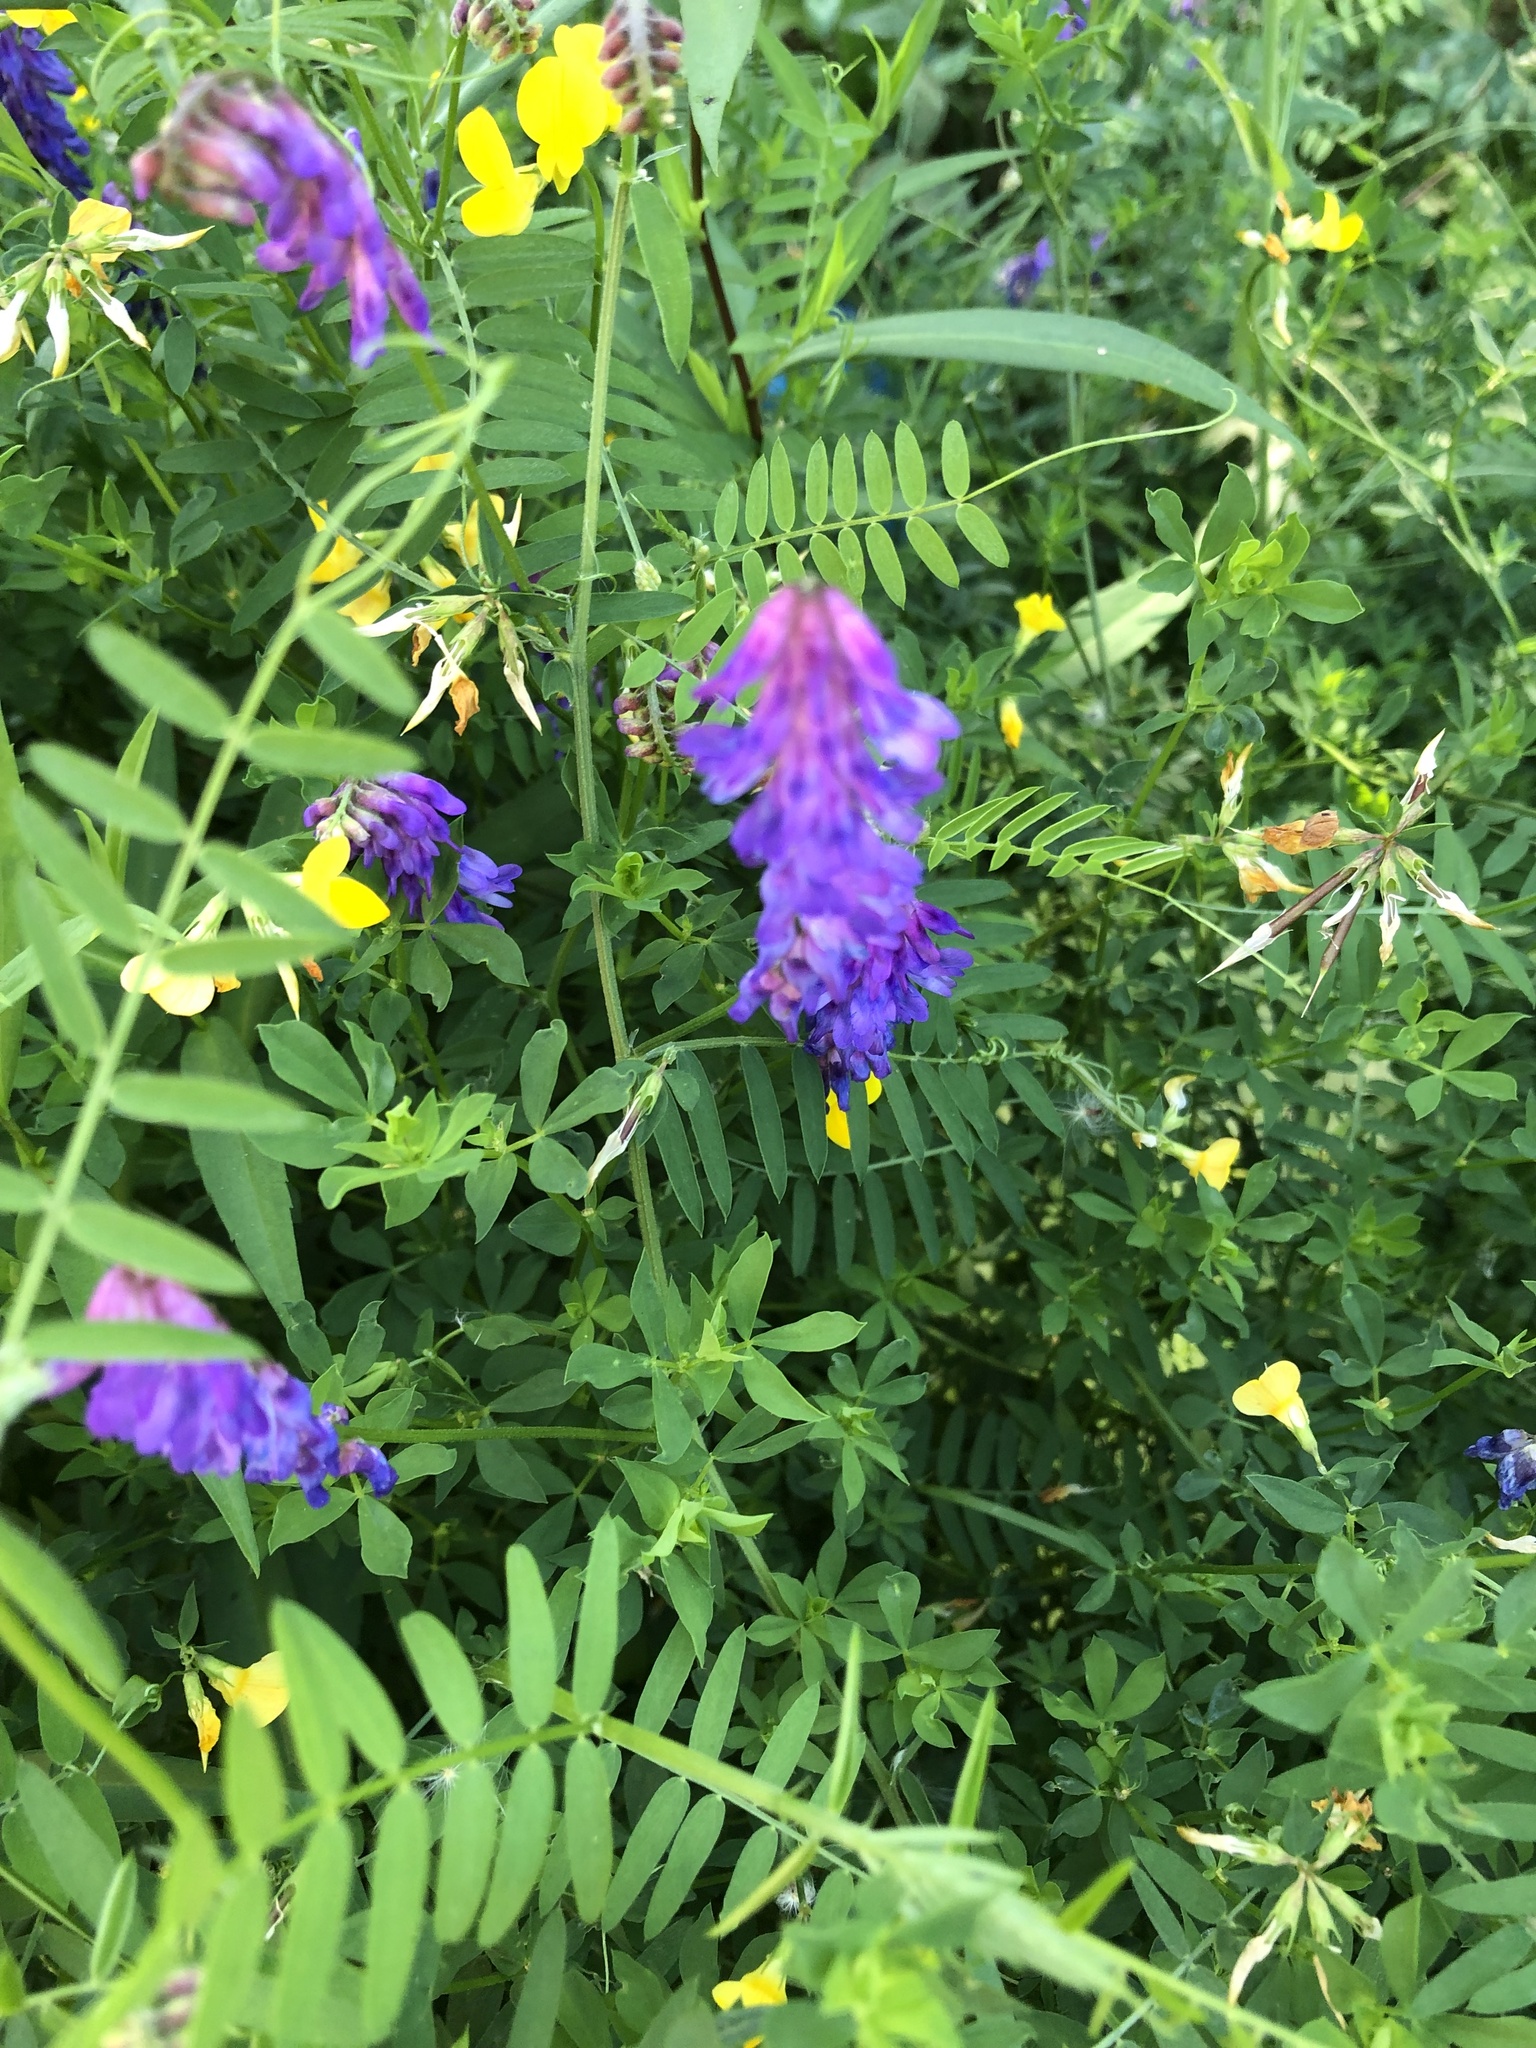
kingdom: Plantae
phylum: Tracheophyta
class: Magnoliopsida
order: Fabales
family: Fabaceae
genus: Vicia
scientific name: Vicia cracca
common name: Bird vetch
